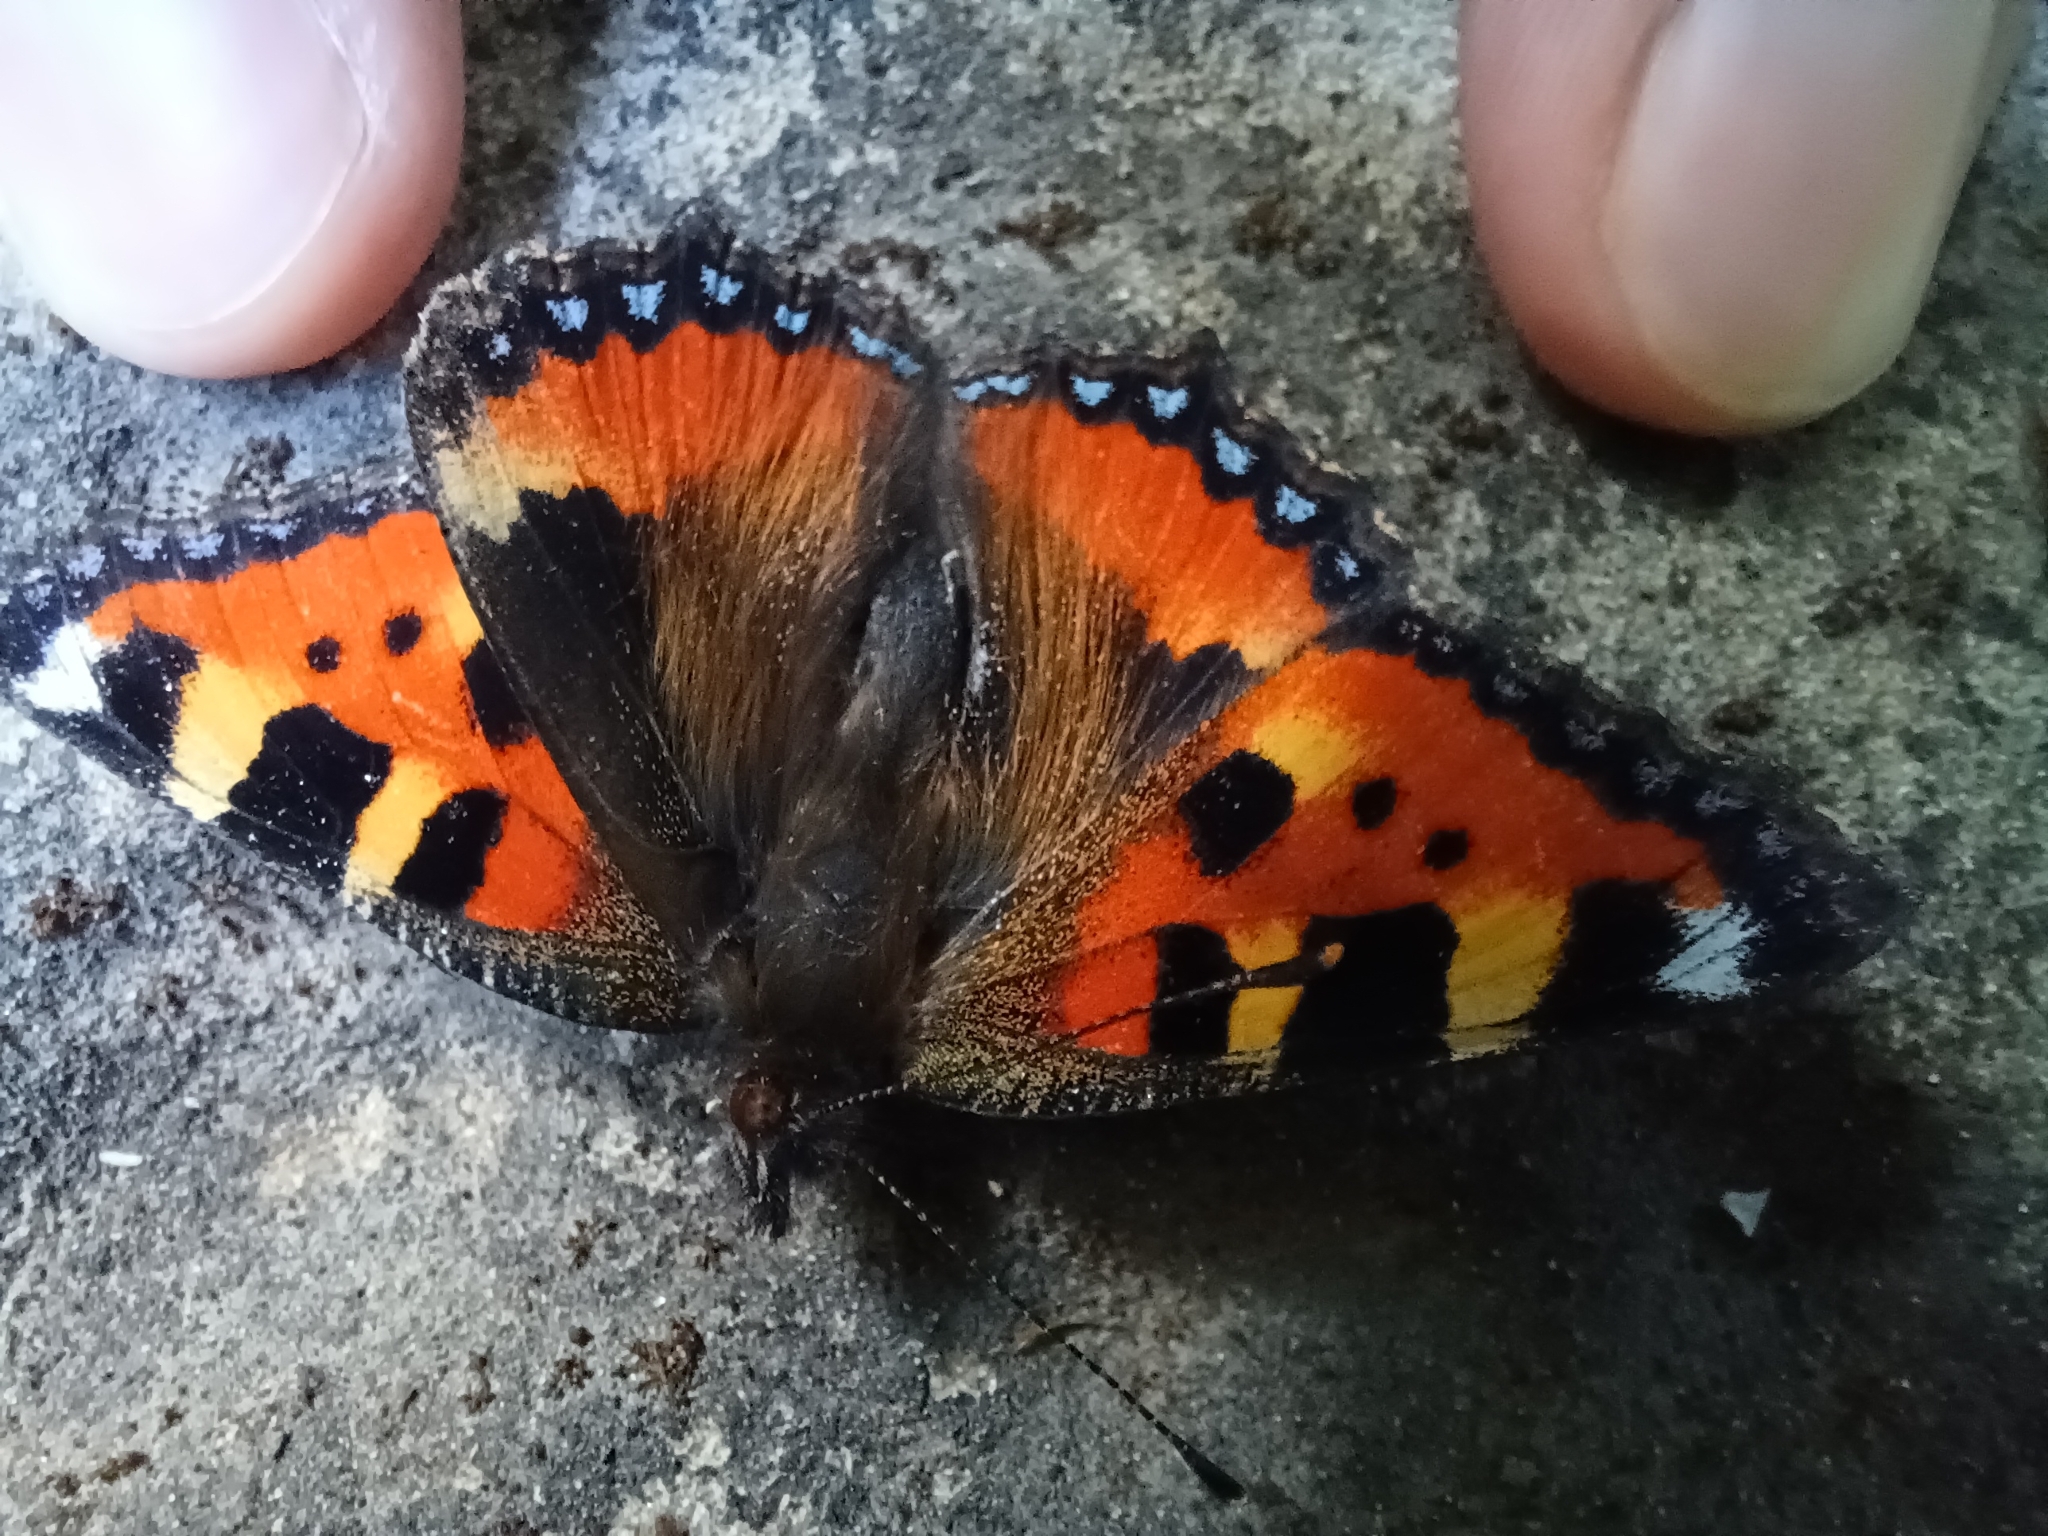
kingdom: Animalia
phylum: Arthropoda
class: Insecta
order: Lepidoptera
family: Nymphalidae
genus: Aglais
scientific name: Aglais urticae
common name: Small tortoiseshell
